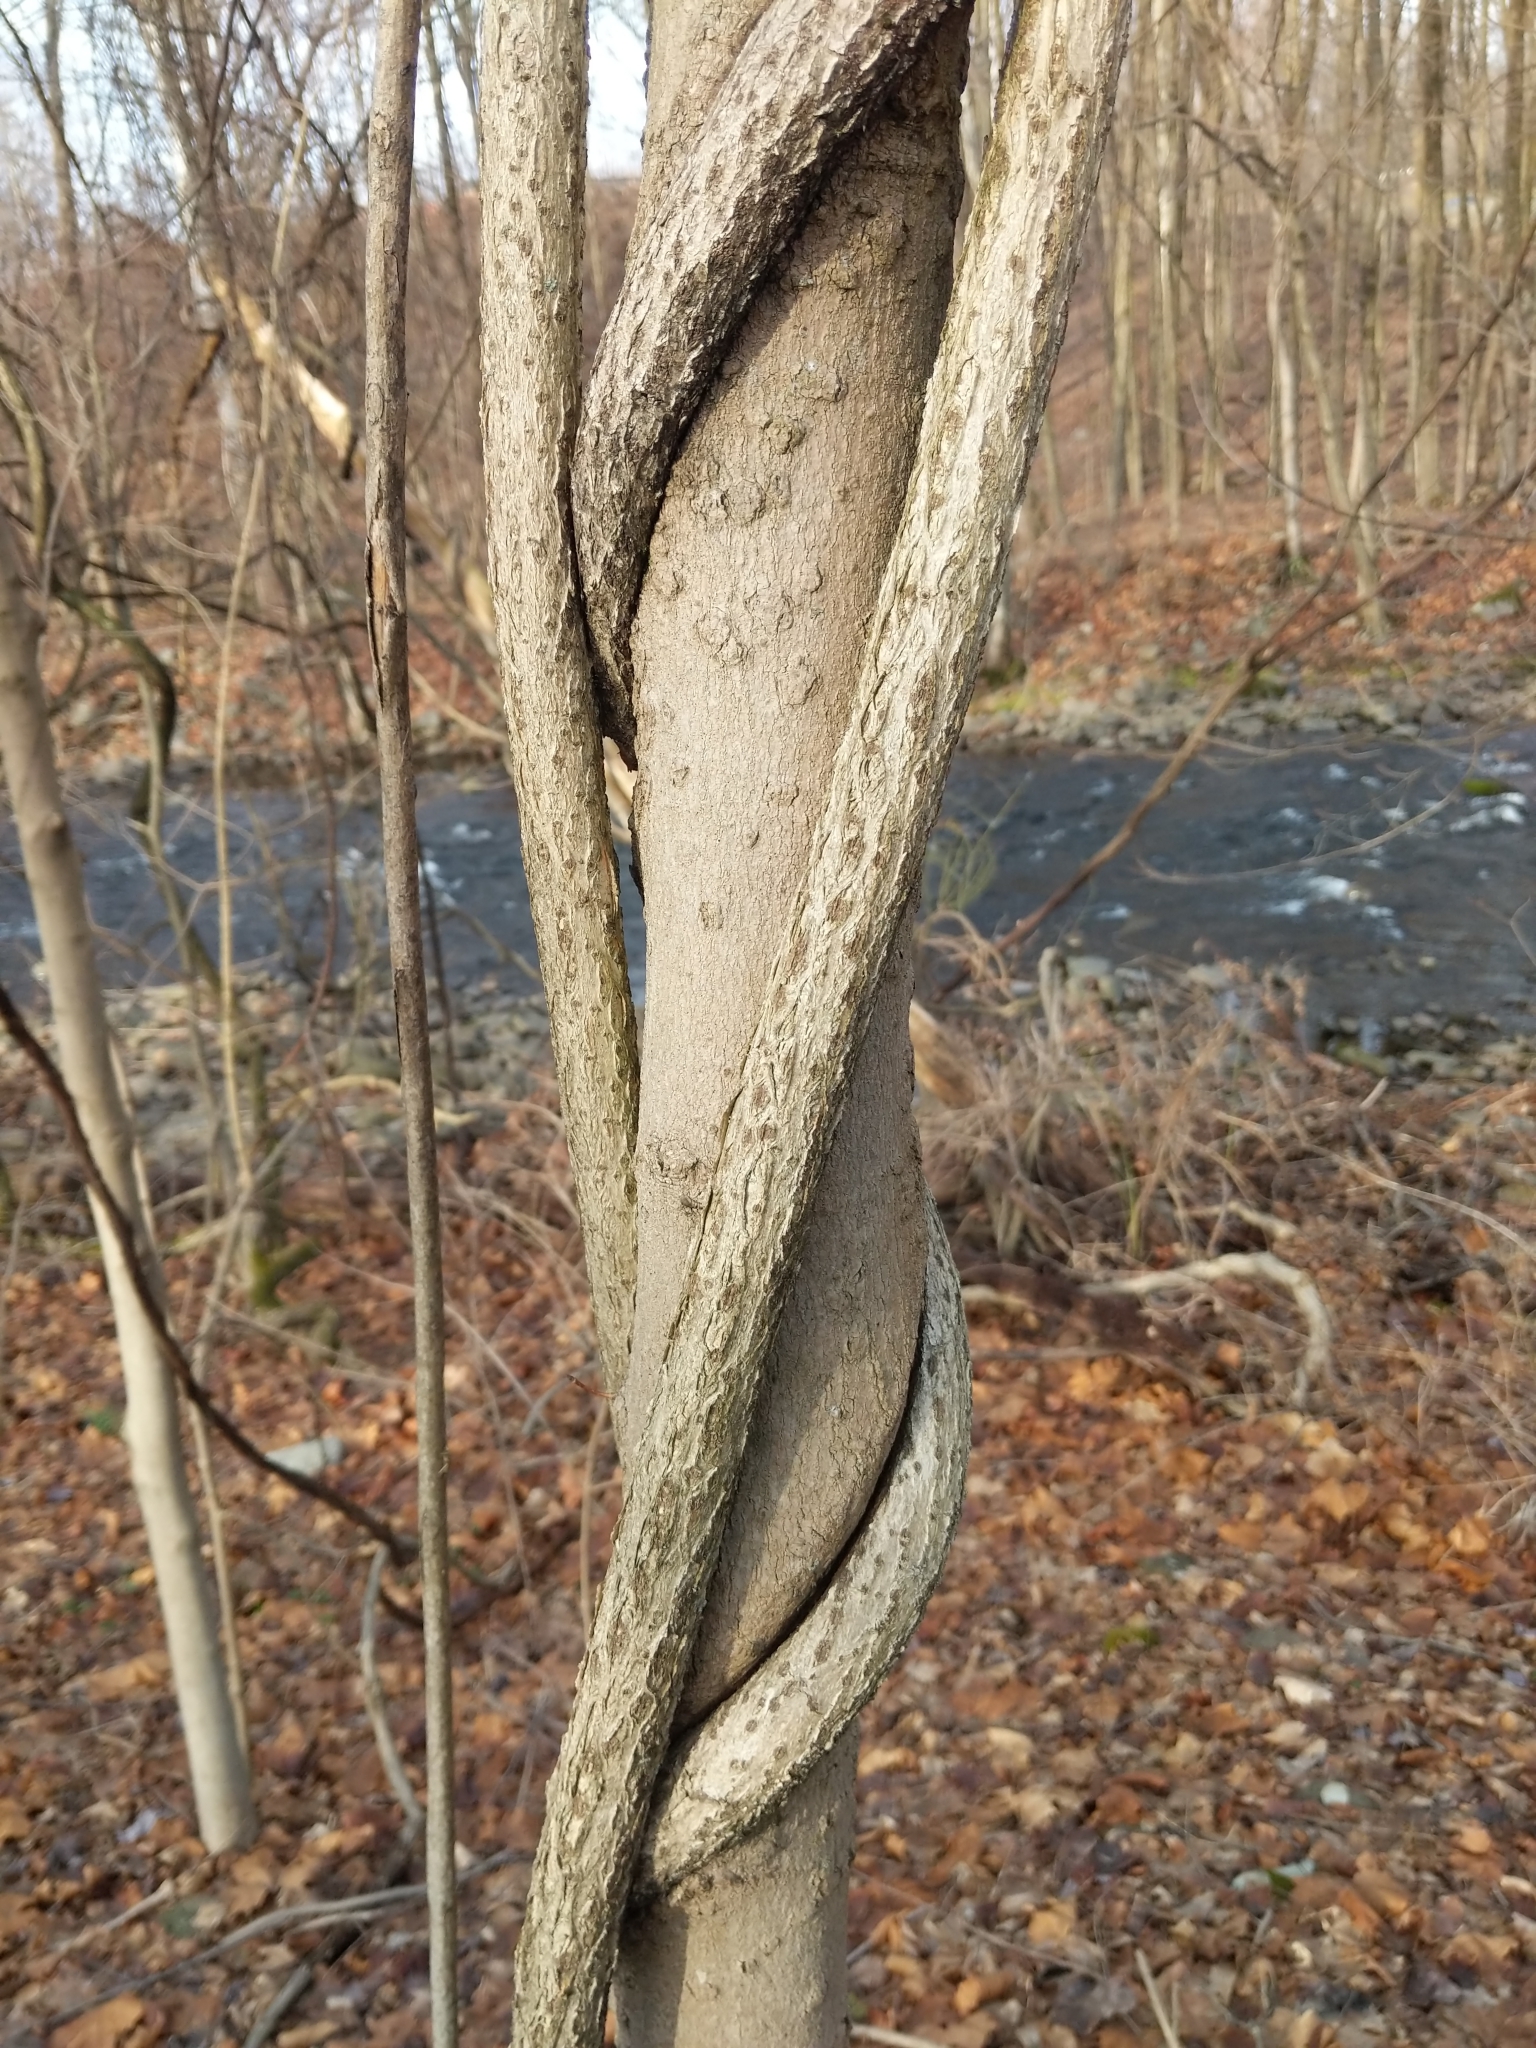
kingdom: Plantae
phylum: Tracheophyta
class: Magnoliopsida
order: Celastrales
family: Celastraceae
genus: Celastrus
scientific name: Celastrus orbiculatus
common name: Oriental bittersweet
